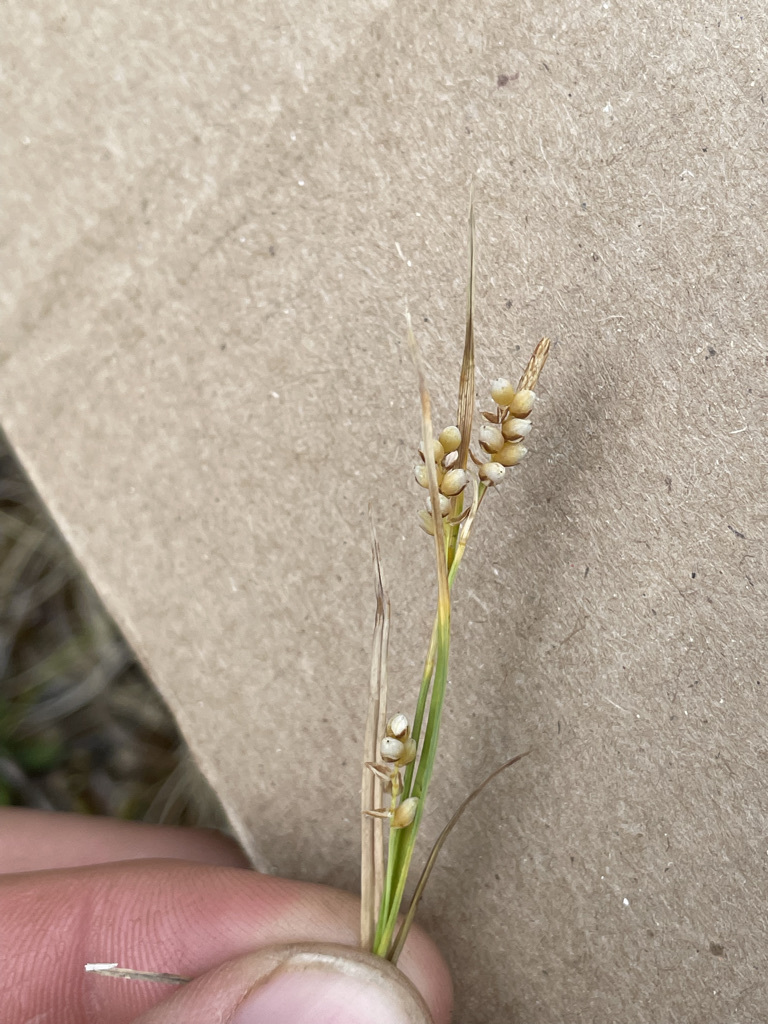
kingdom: Plantae
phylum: Tracheophyta
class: Liliopsida
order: Poales
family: Cyperaceae
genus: Carex
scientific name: Carex aurea
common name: Golden sedge
